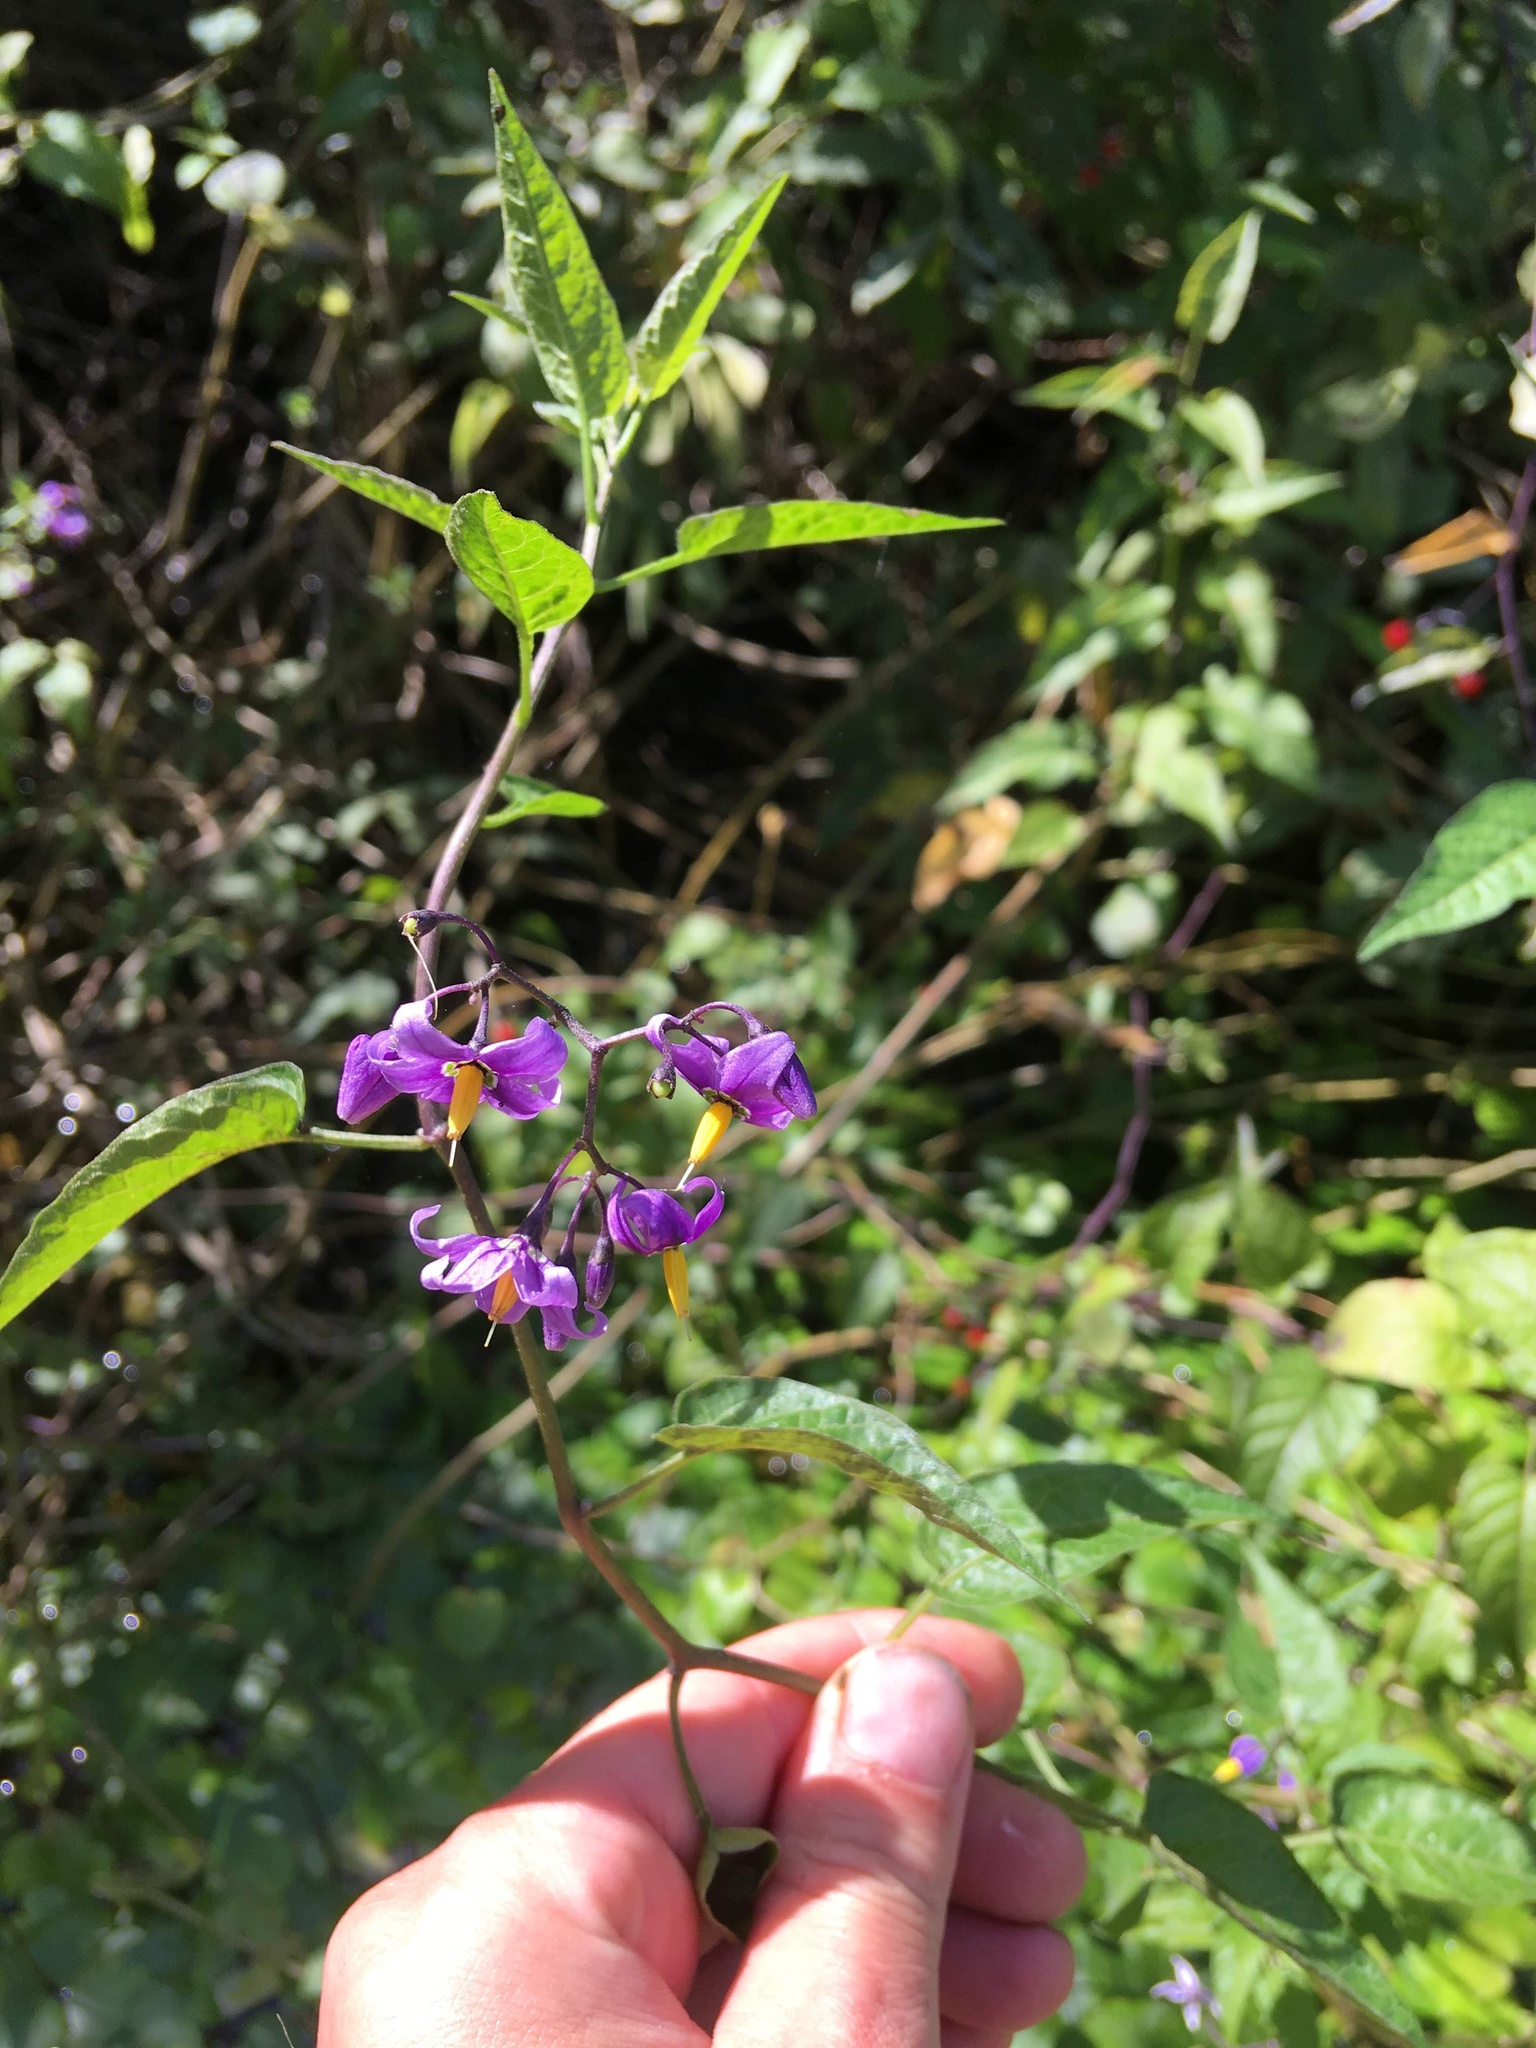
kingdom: Plantae
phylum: Tracheophyta
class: Magnoliopsida
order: Solanales
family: Solanaceae
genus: Solanum
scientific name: Solanum dulcamara
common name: Climbing nightshade
